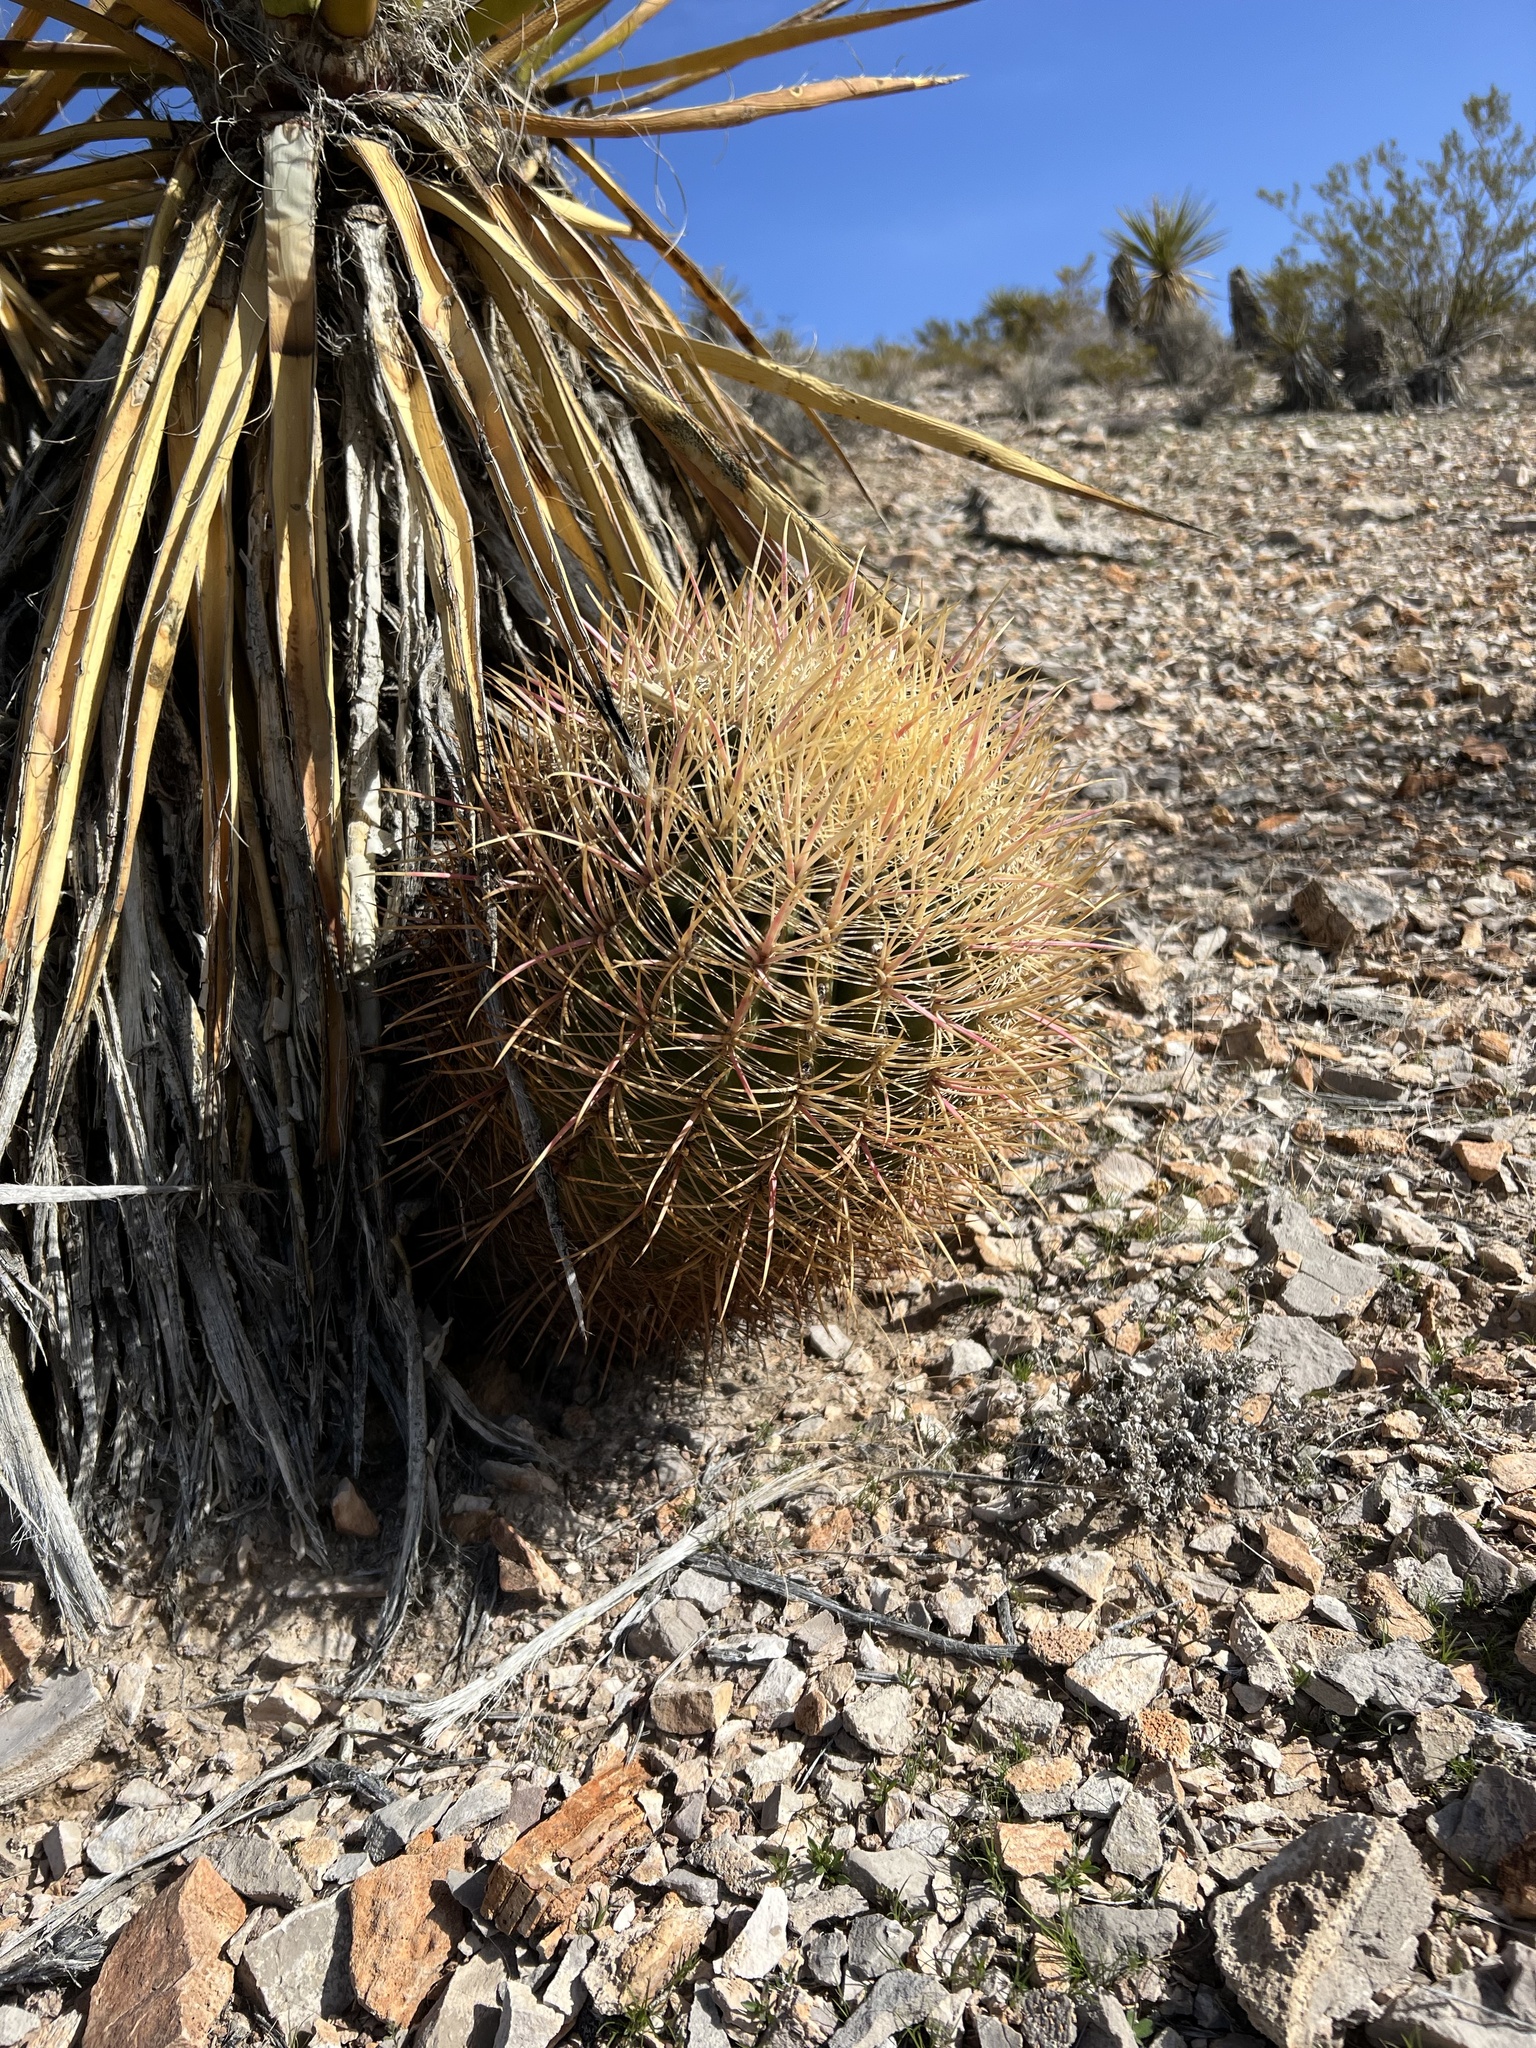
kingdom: Plantae
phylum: Tracheophyta
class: Magnoliopsida
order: Caryophyllales
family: Cactaceae
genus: Ferocactus
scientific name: Ferocactus cylindraceus
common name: California barrel cactus
